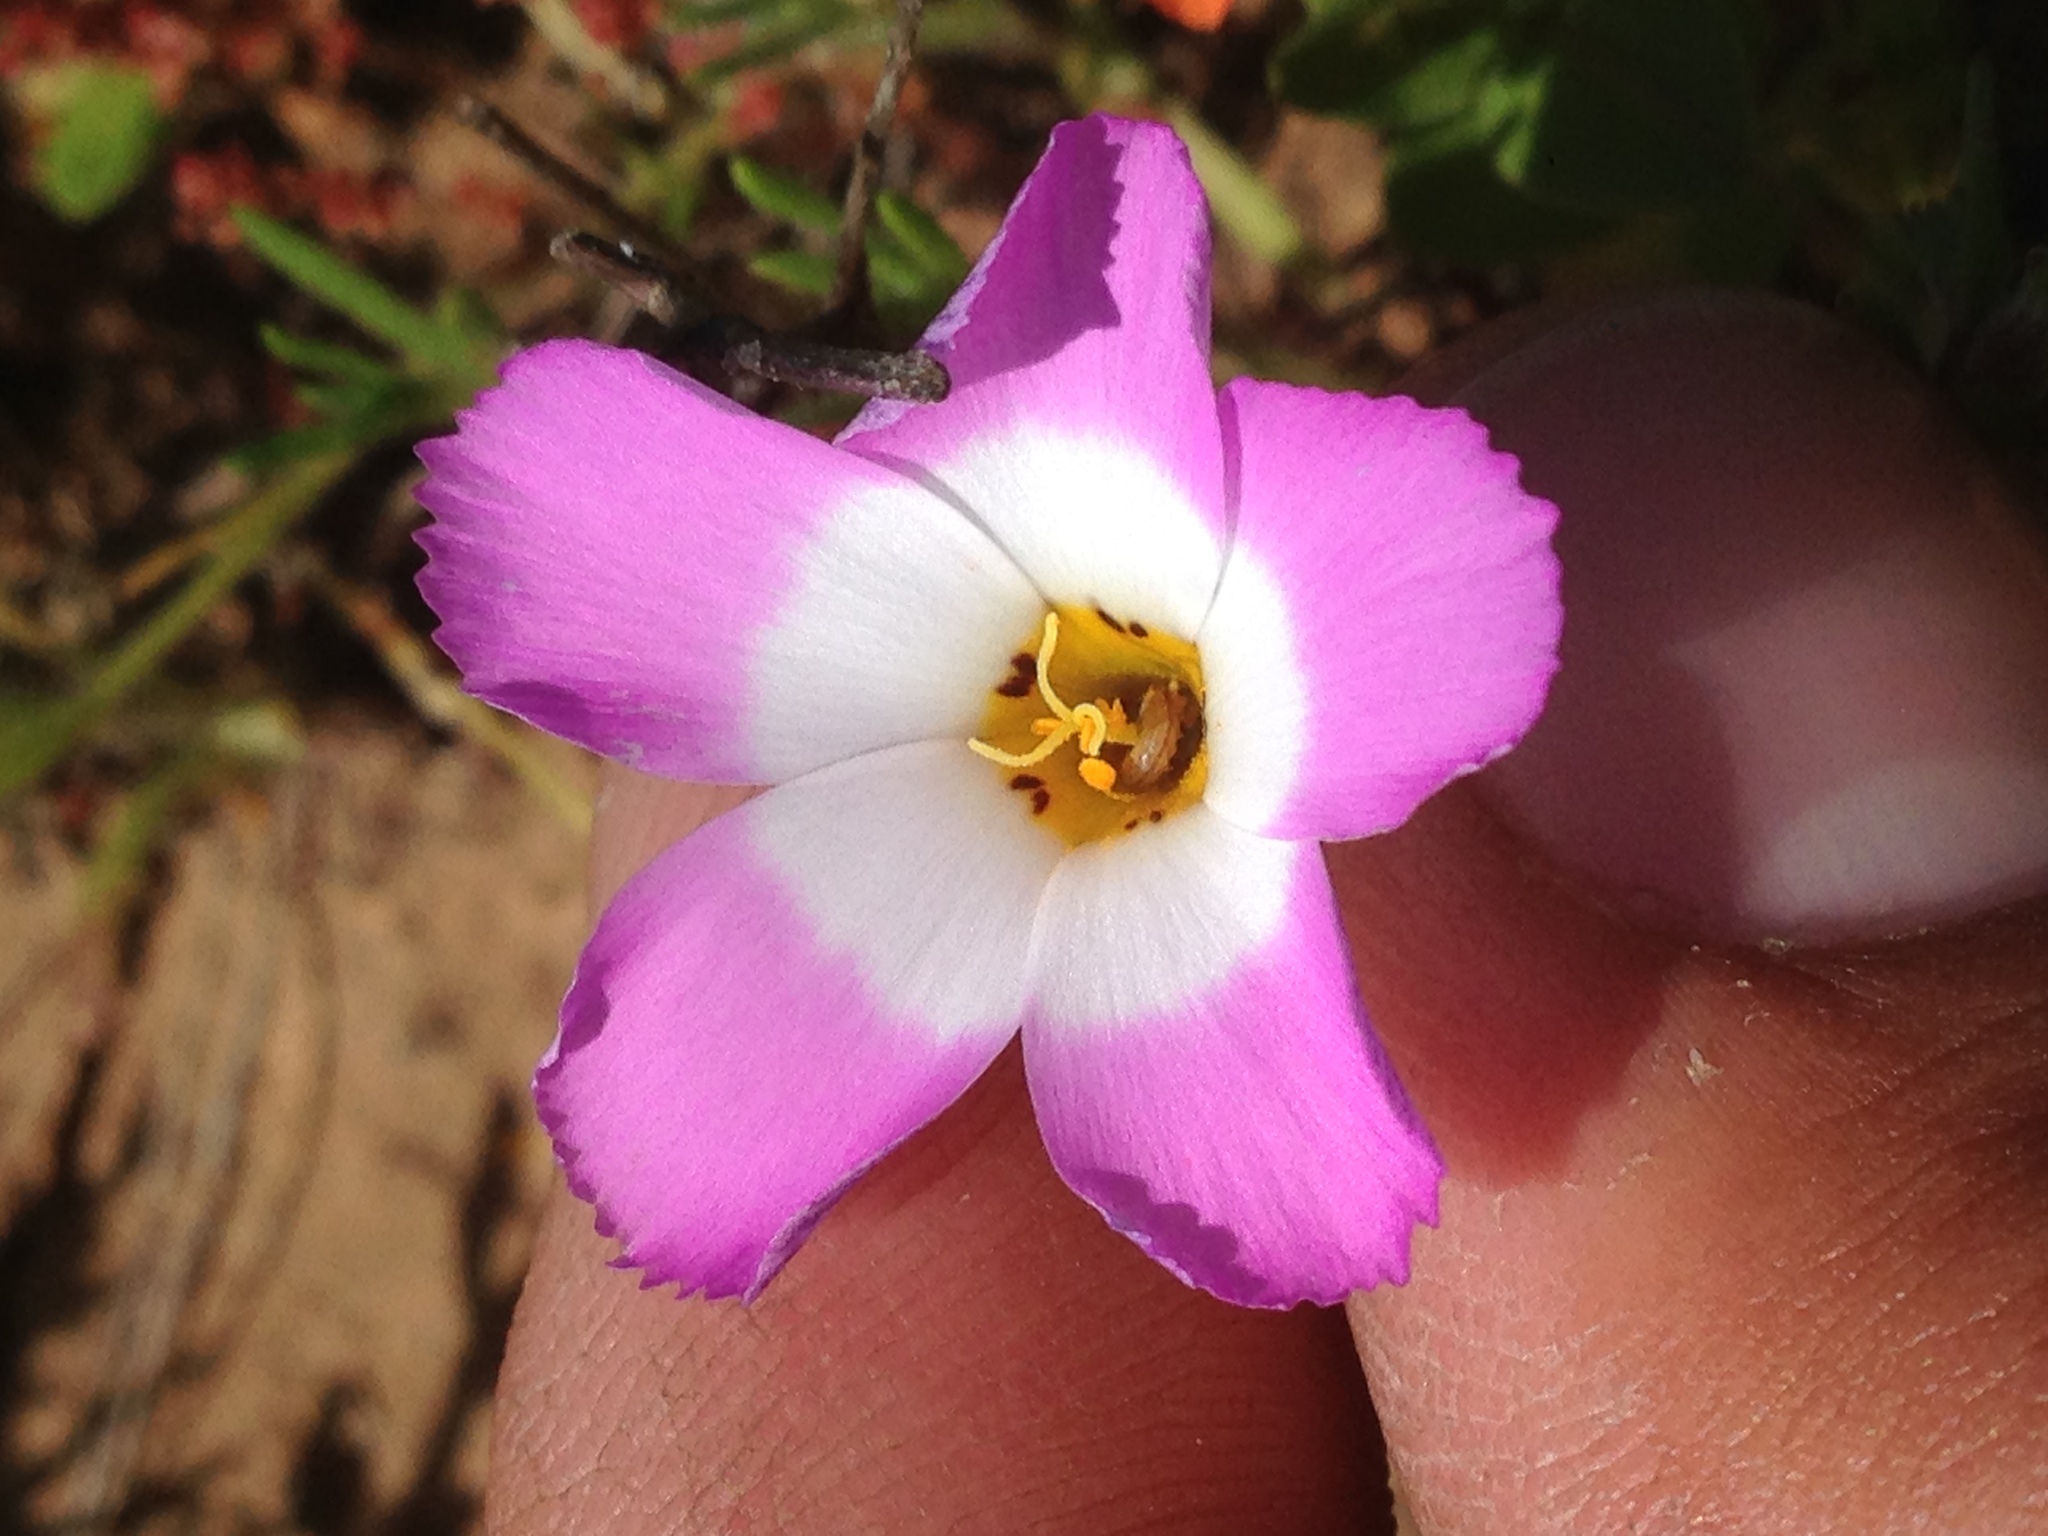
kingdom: Plantae
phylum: Tracheophyta
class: Magnoliopsida
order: Ericales
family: Polemoniaceae
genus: Linanthus
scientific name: Linanthus dianthiflorus
